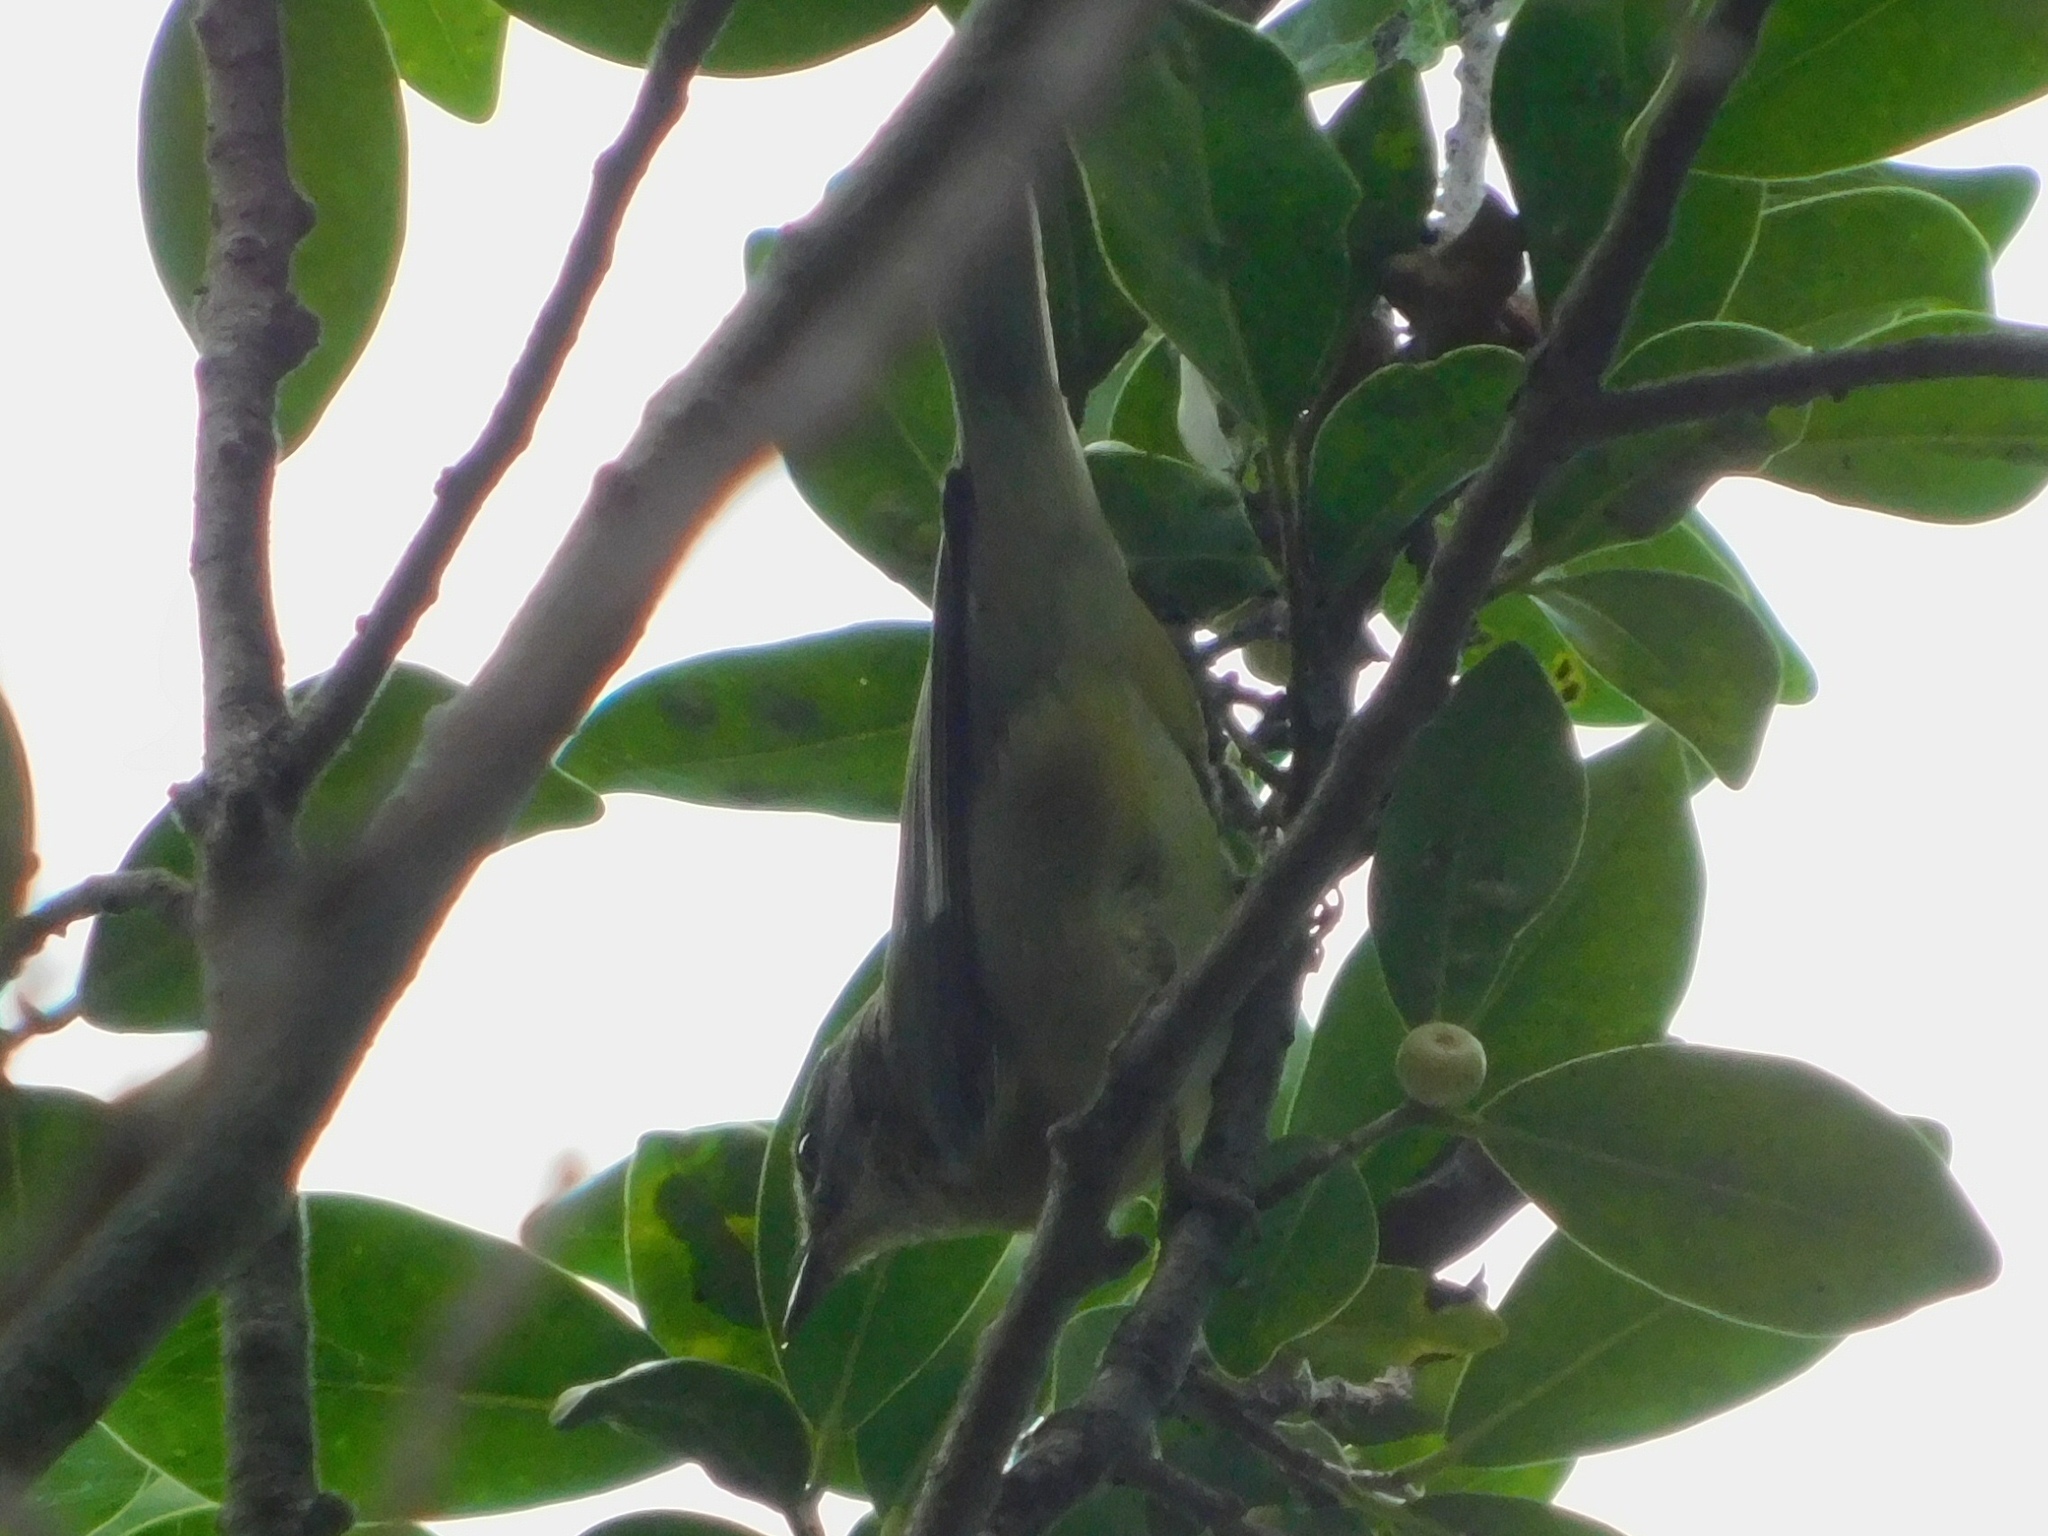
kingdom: Animalia
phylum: Chordata
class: Aves
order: Passeriformes
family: Parulidae
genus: Setophaga
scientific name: Setophaga caerulescens
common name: Black-throated blue warbler
